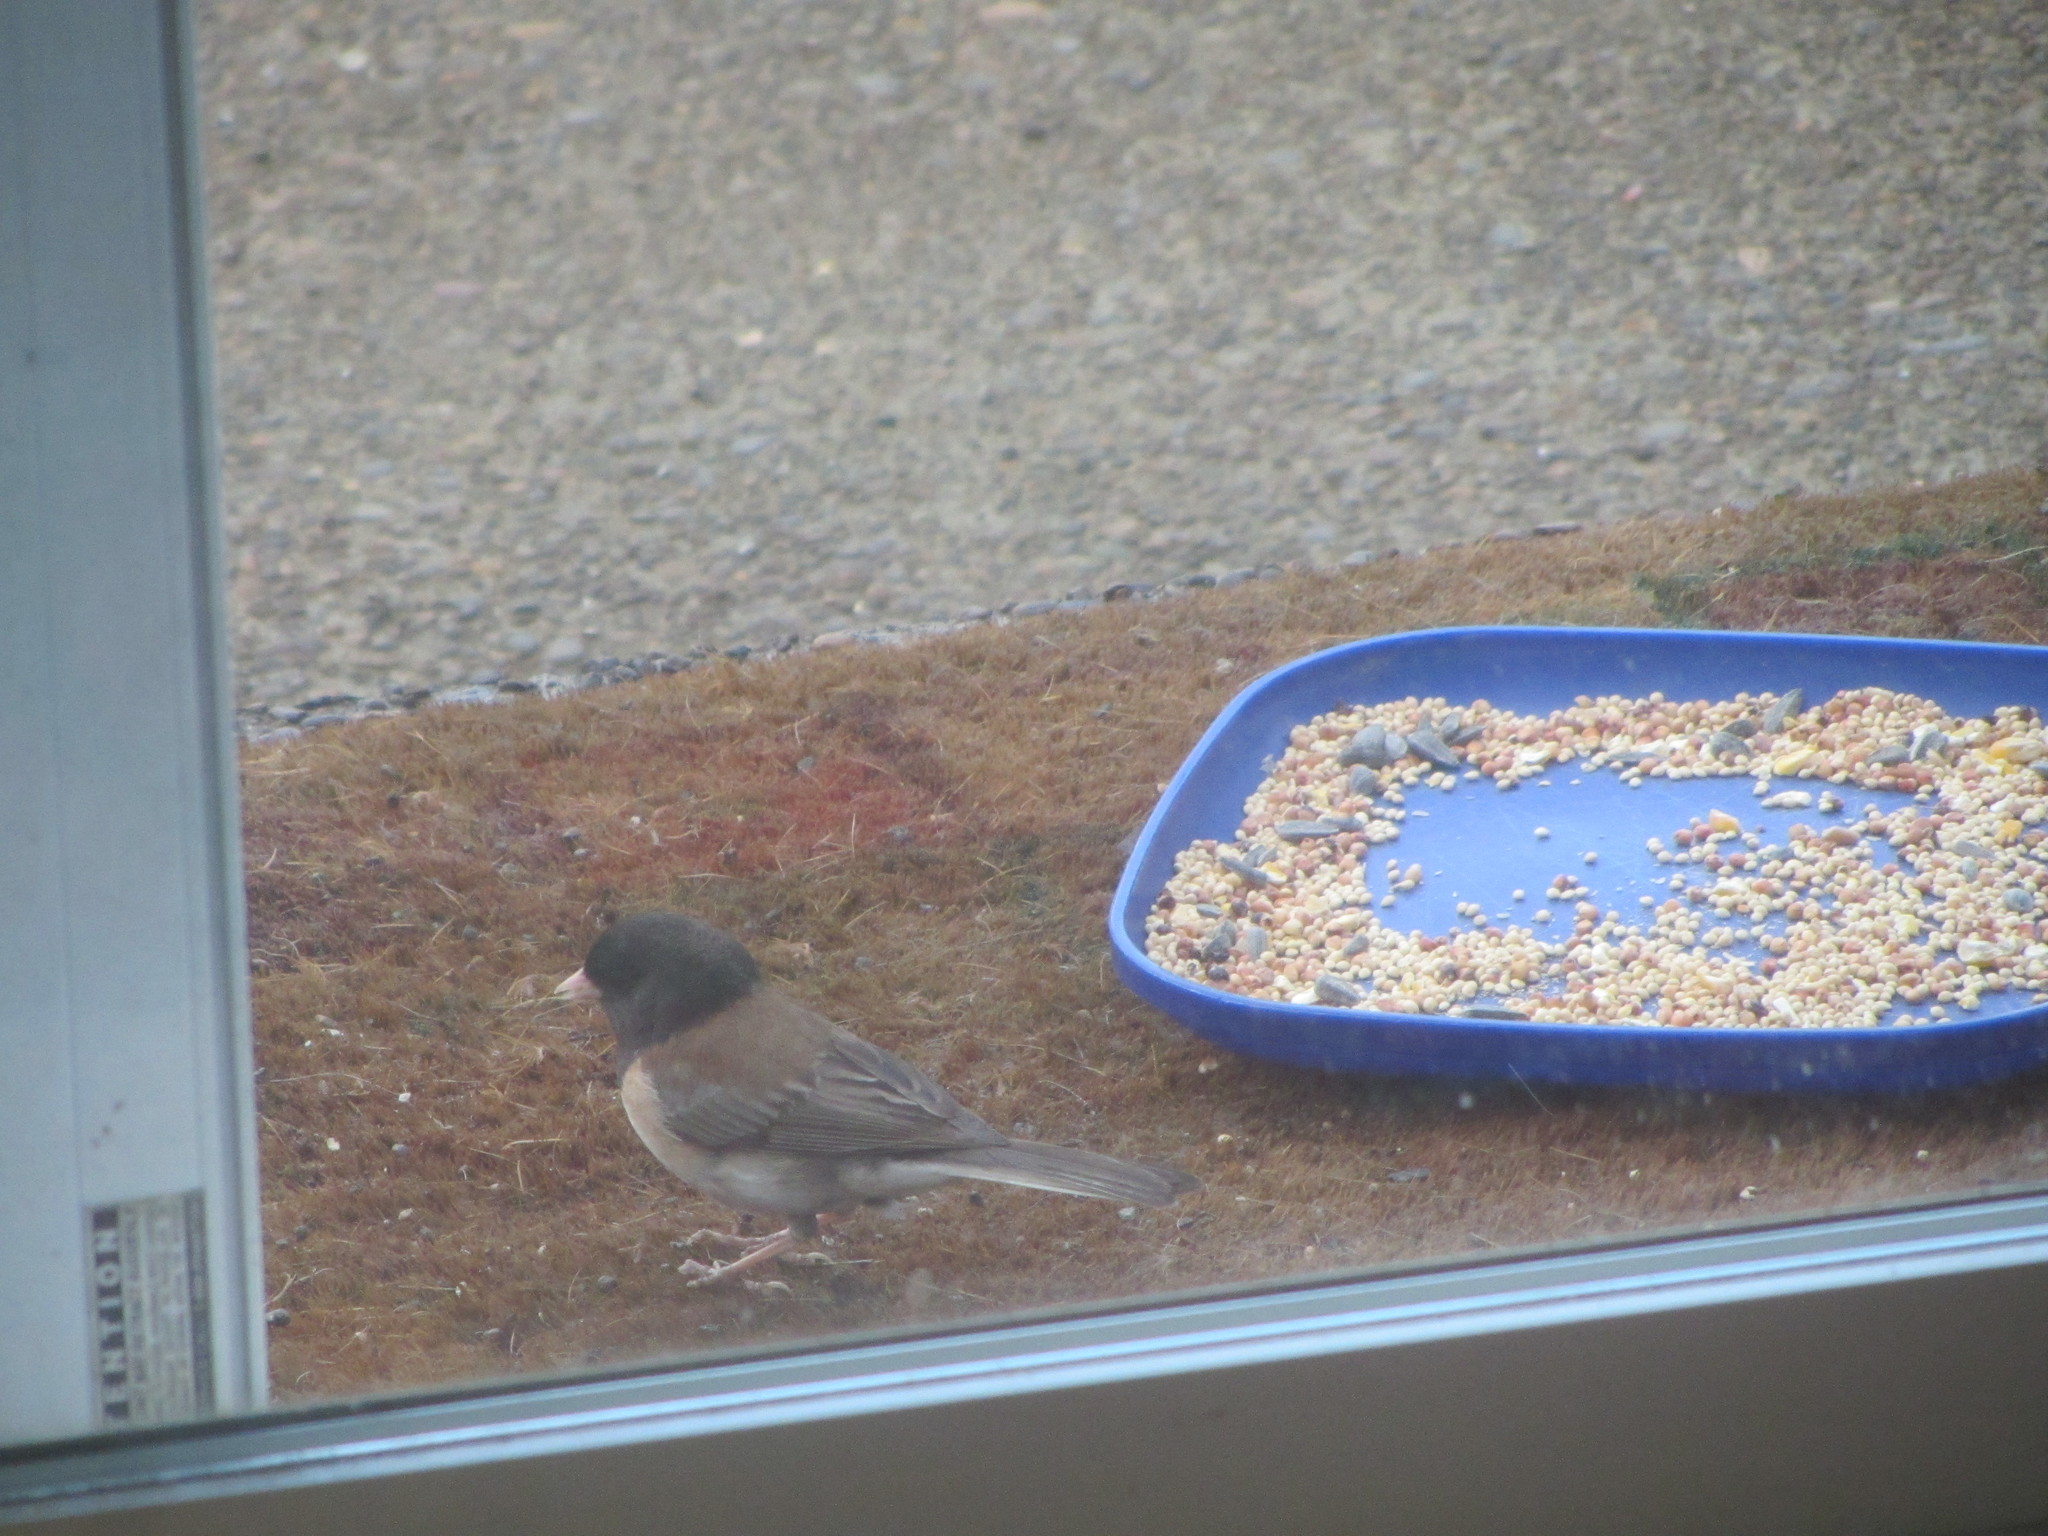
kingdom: Animalia
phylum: Chordata
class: Aves
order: Passeriformes
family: Passerellidae
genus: Junco
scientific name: Junco hyemalis
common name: Dark-eyed junco
